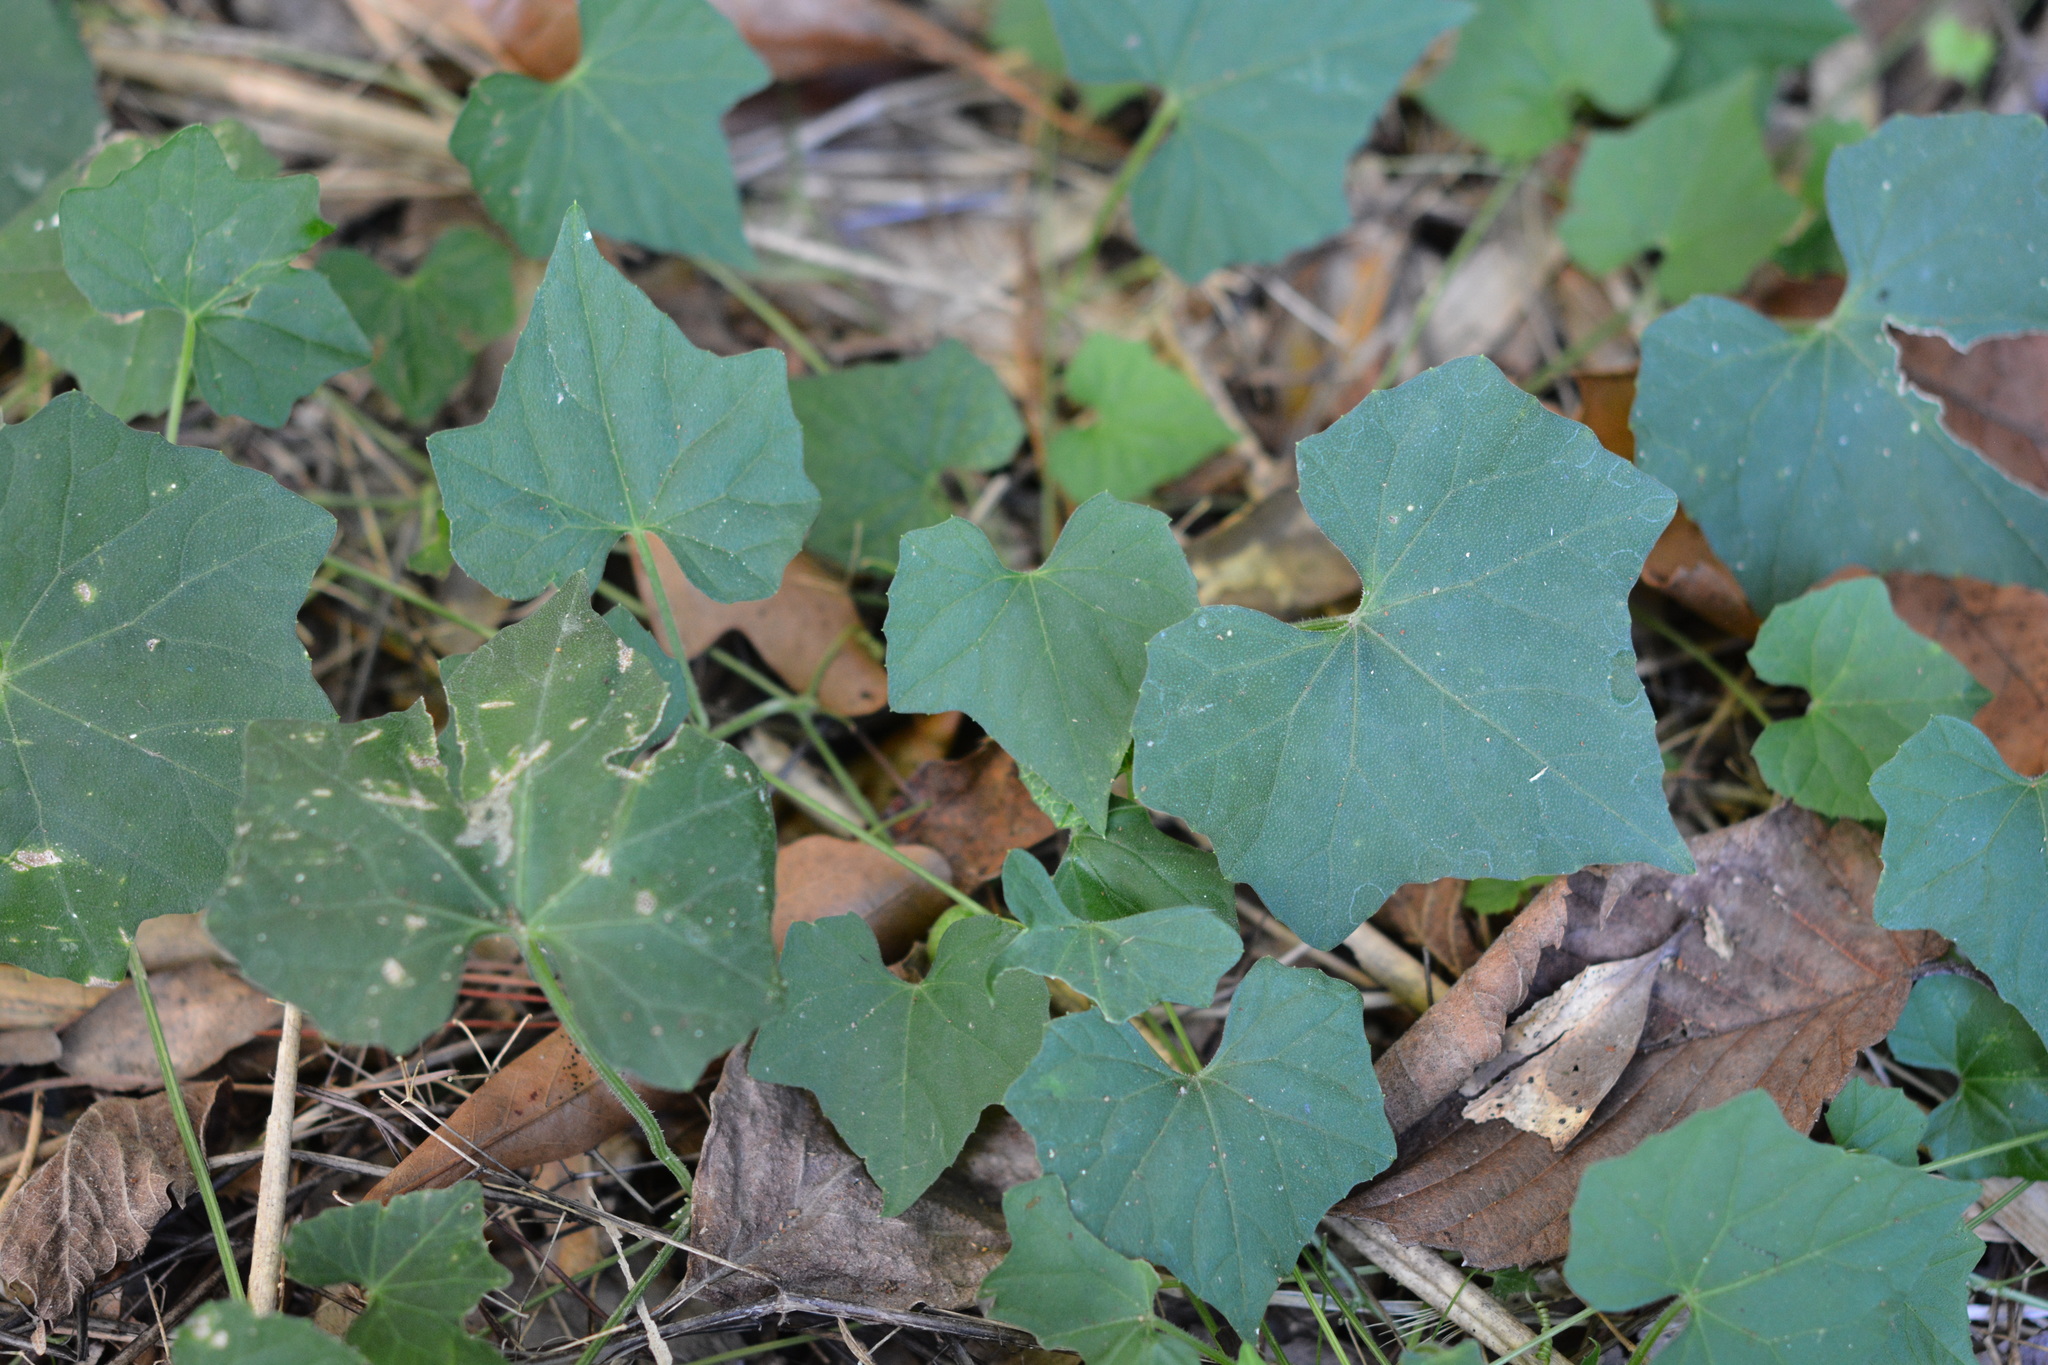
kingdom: Plantae
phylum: Tracheophyta
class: Magnoliopsida
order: Cucurbitales
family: Cucurbitaceae
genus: Melothria
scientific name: Melothria pendula
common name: Creeping-cucumber
